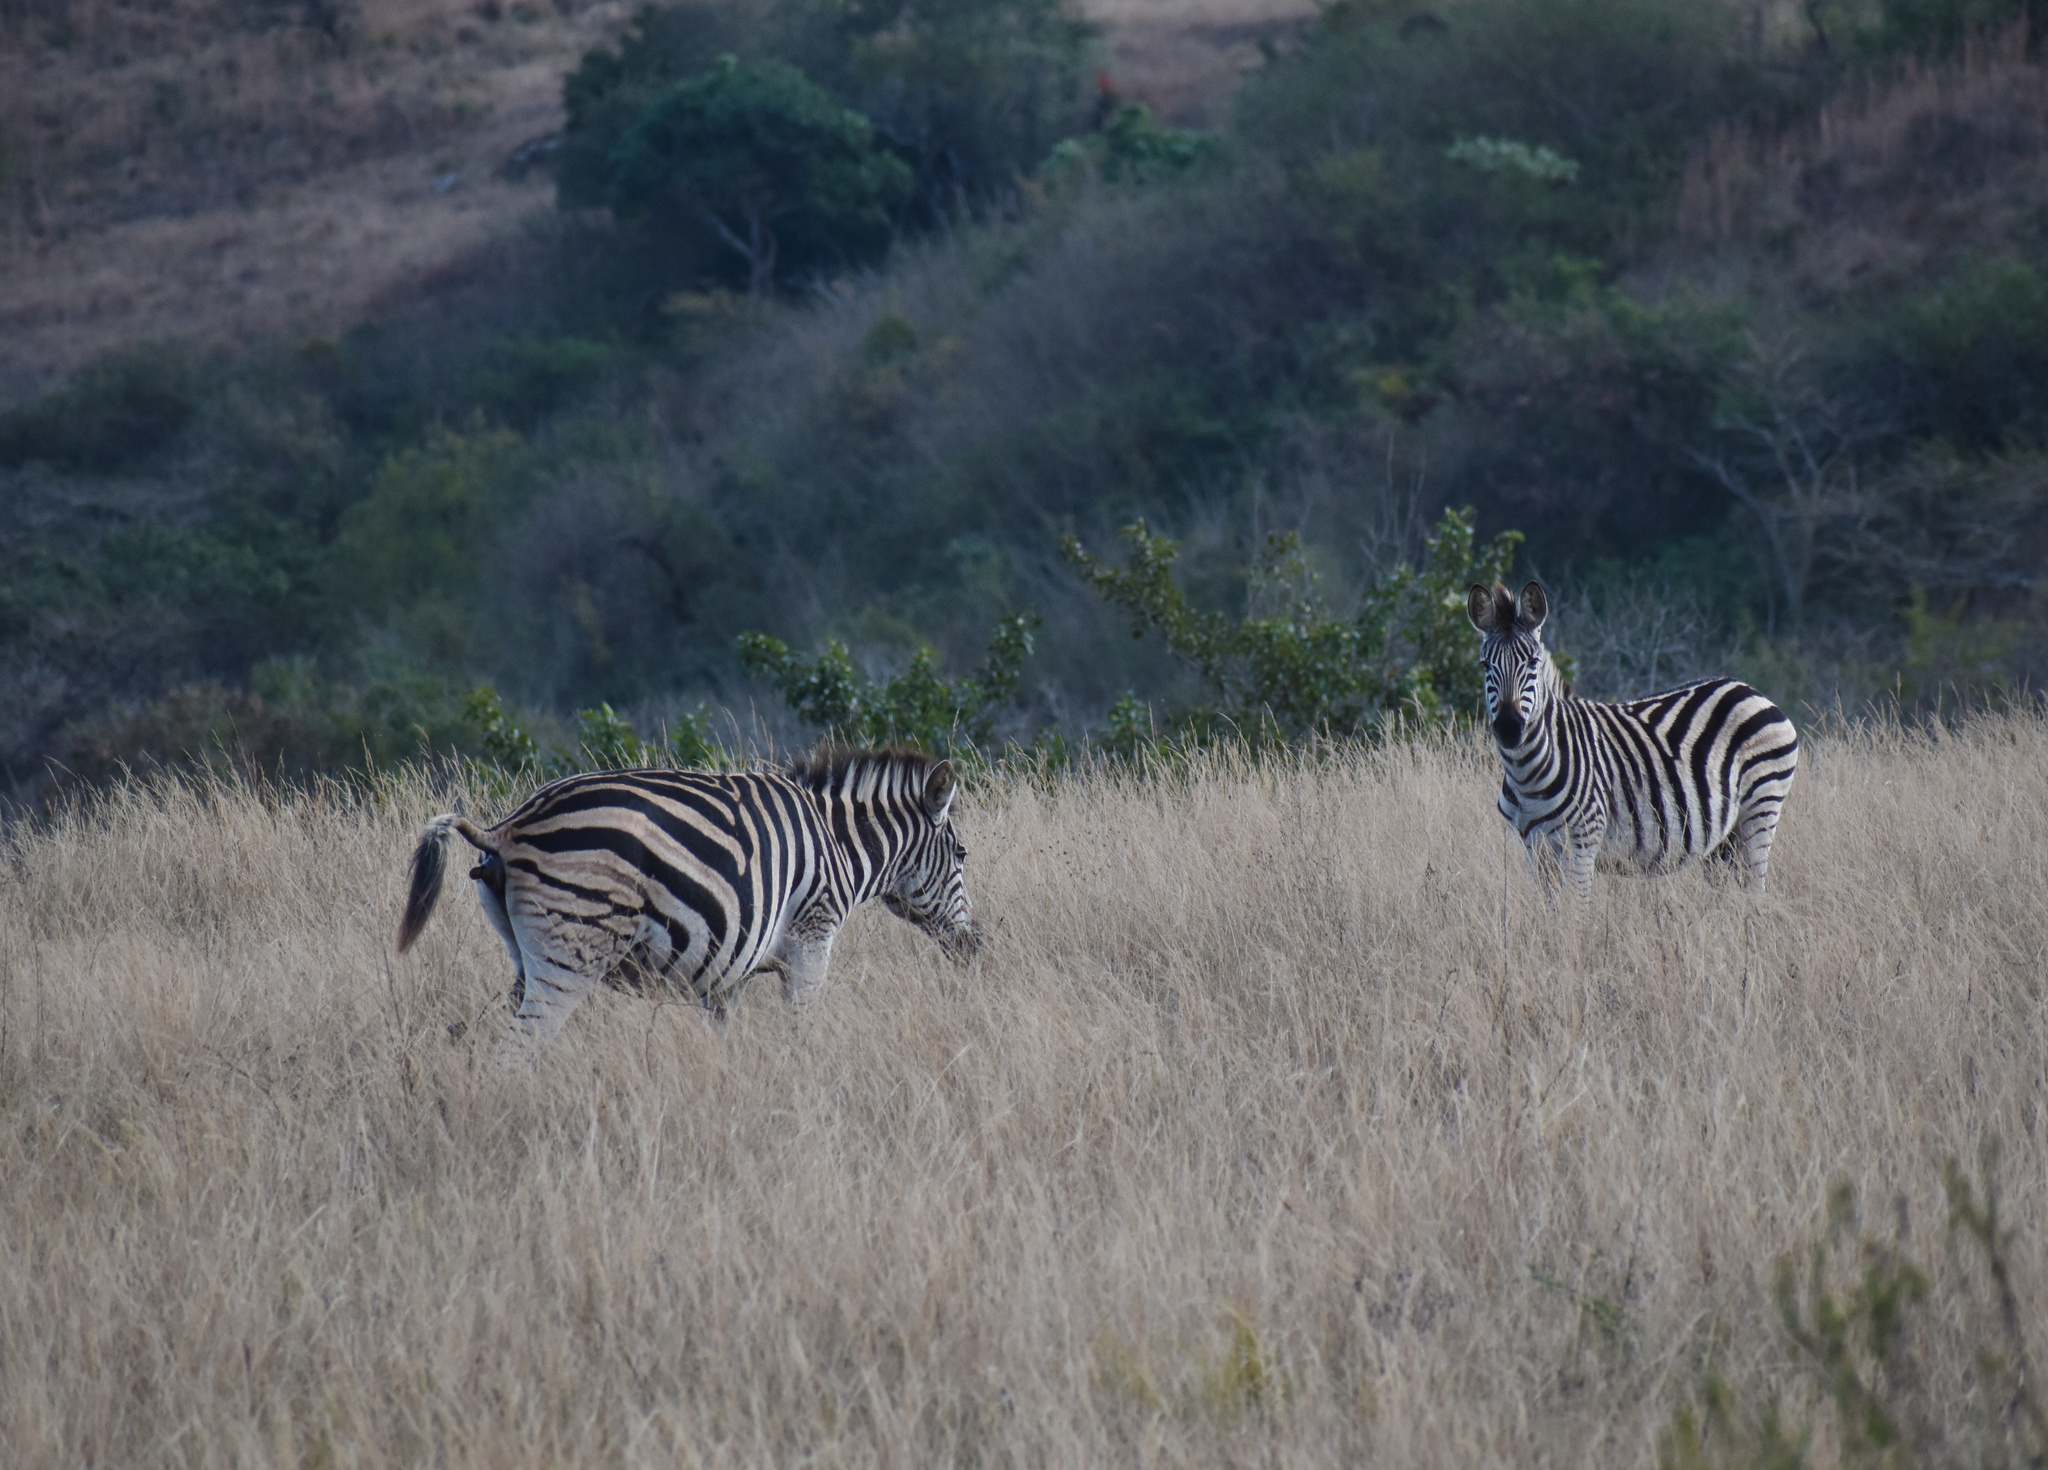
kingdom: Animalia
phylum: Chordata
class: Mammalia
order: Perissodactyla
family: Equidae
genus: Equus
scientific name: Equus quagga
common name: Plains zebra
